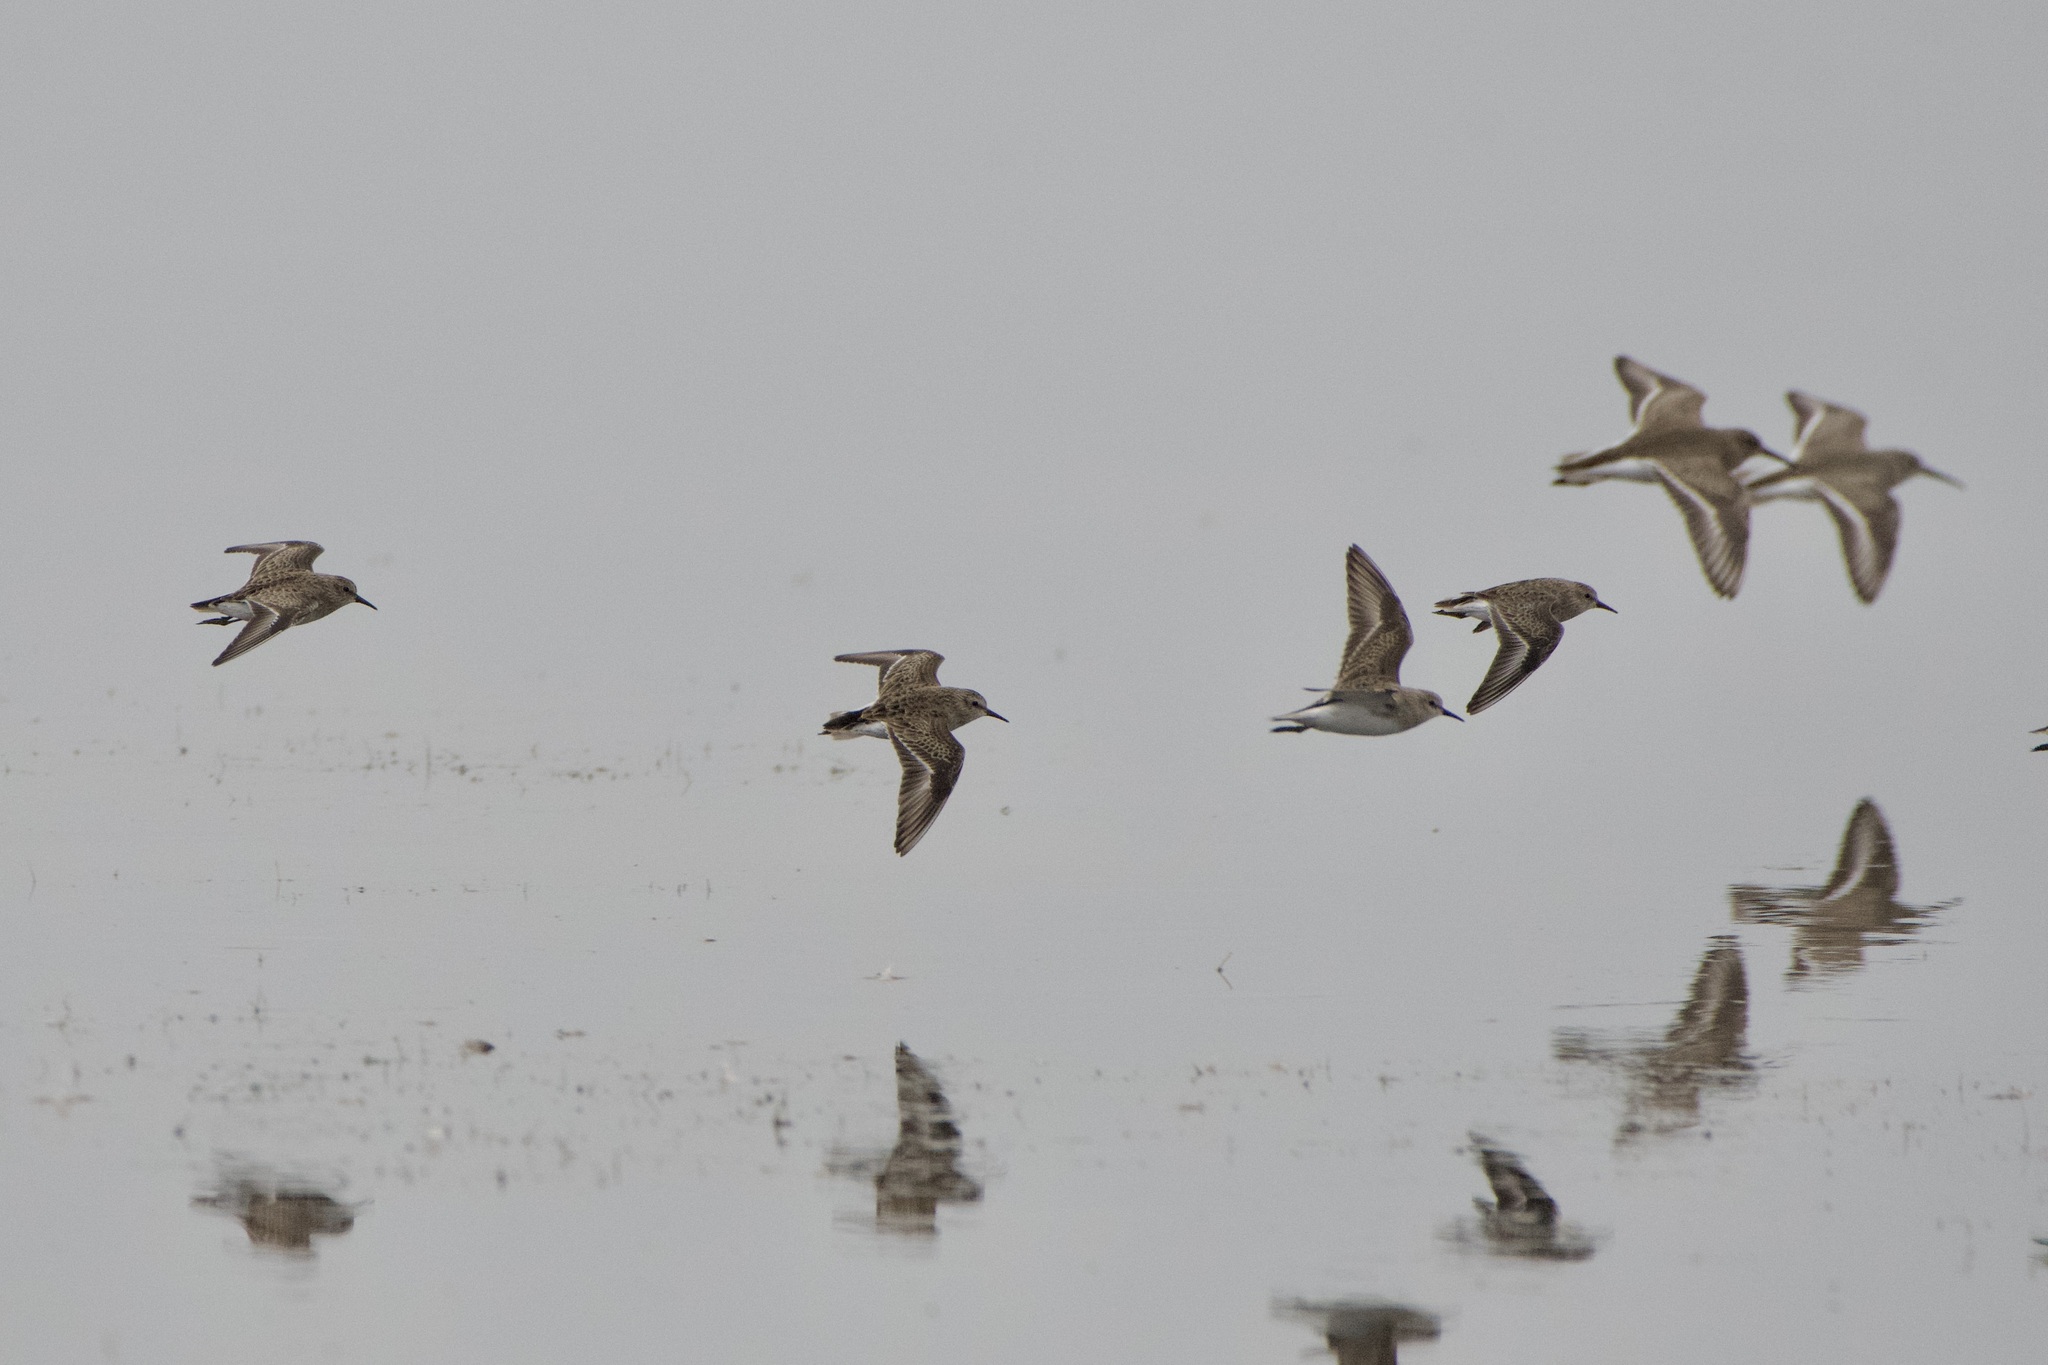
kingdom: Animalia
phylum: Chordata
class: Aves
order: Charadriiformes
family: Scolopacidae
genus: Calidris
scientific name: Calidris minutilla
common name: Least sandpiper
